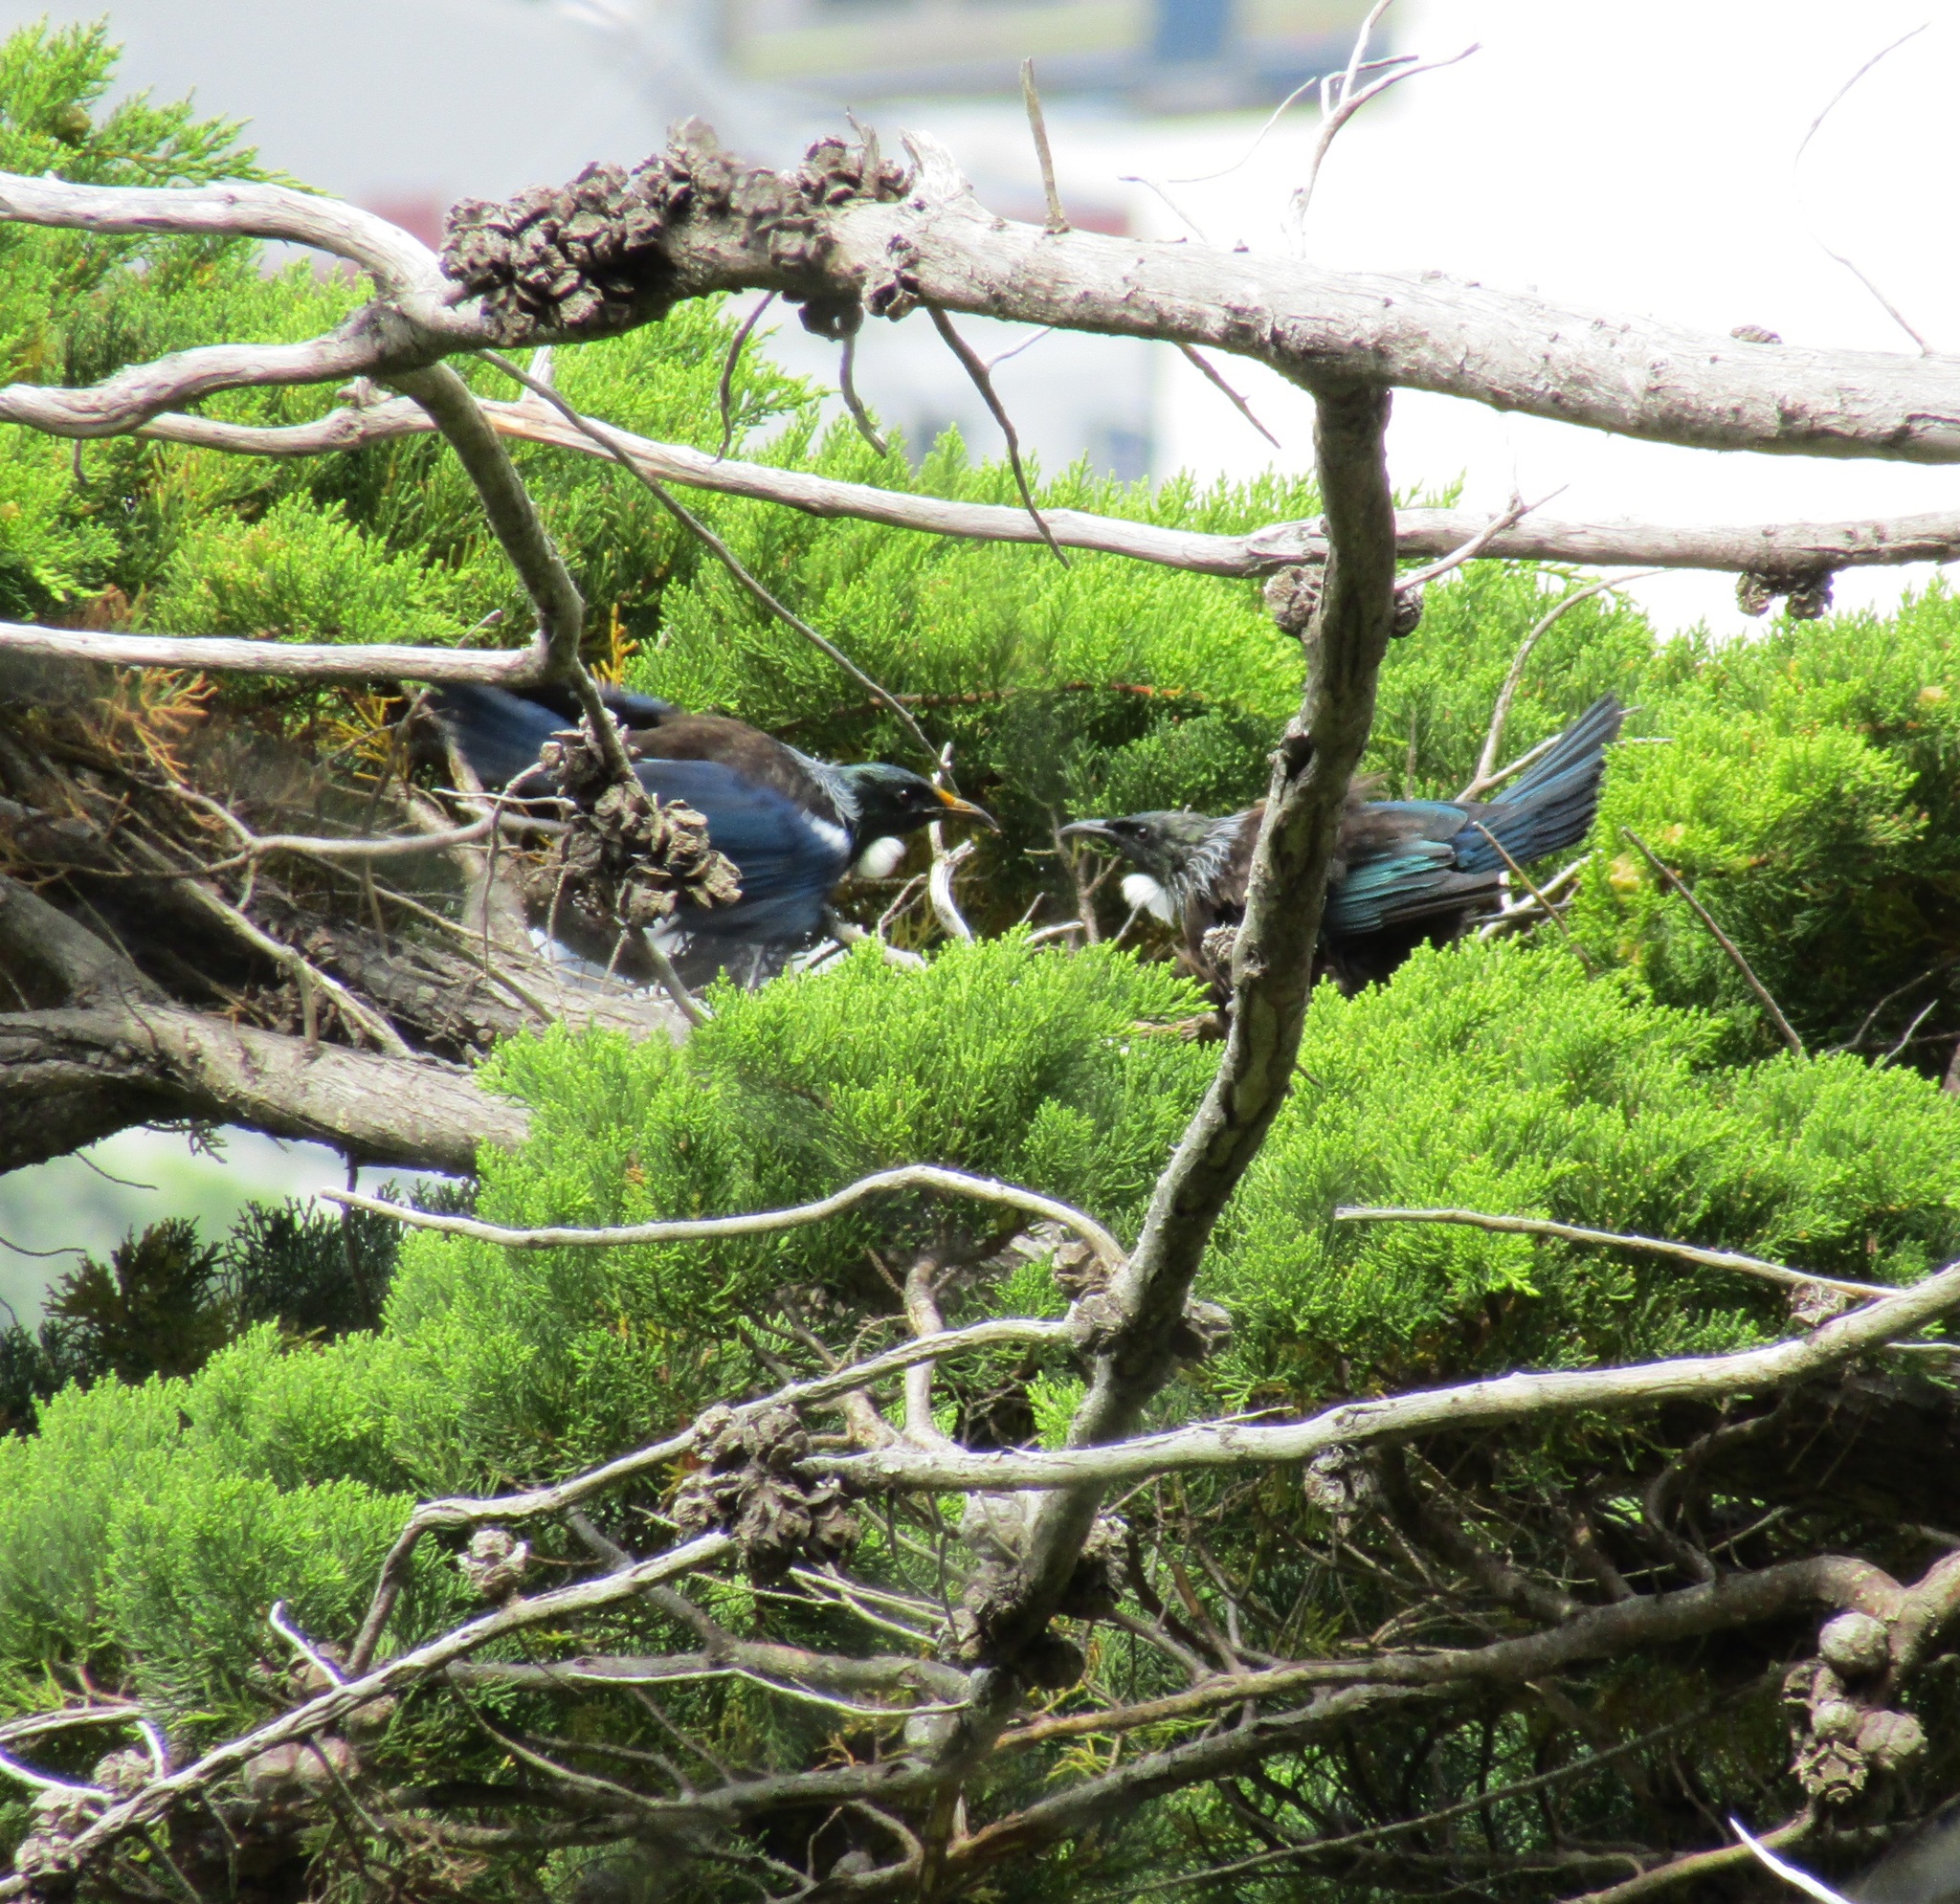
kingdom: Animalia
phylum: Chordata
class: Aves
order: Passeriformes
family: Meliphagidae
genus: Prosthemadera
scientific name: Prosthemadera novaeseelandiae
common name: Tui
